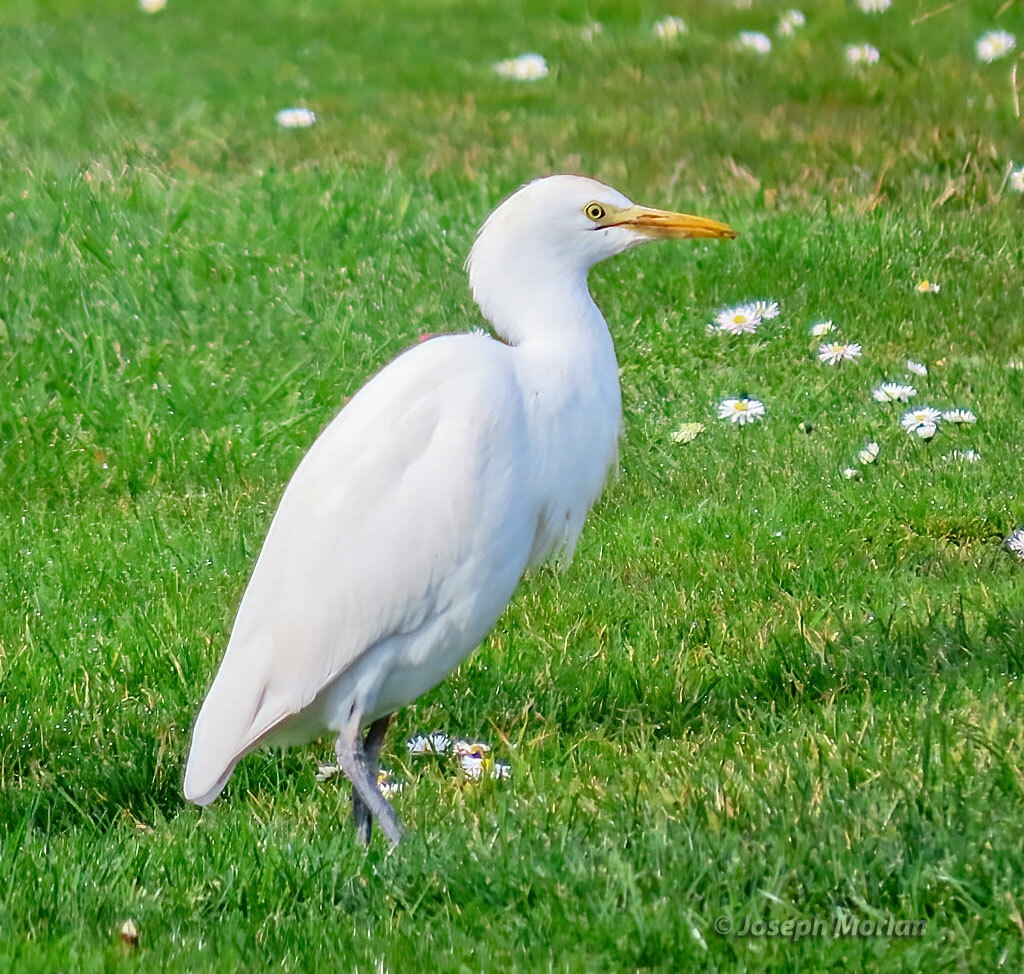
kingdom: Animalia
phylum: Chordata
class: Aves
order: Pelecaniformes
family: Ardeidae
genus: Bubulcus
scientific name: Bubulcus ibis
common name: Cattle egret
